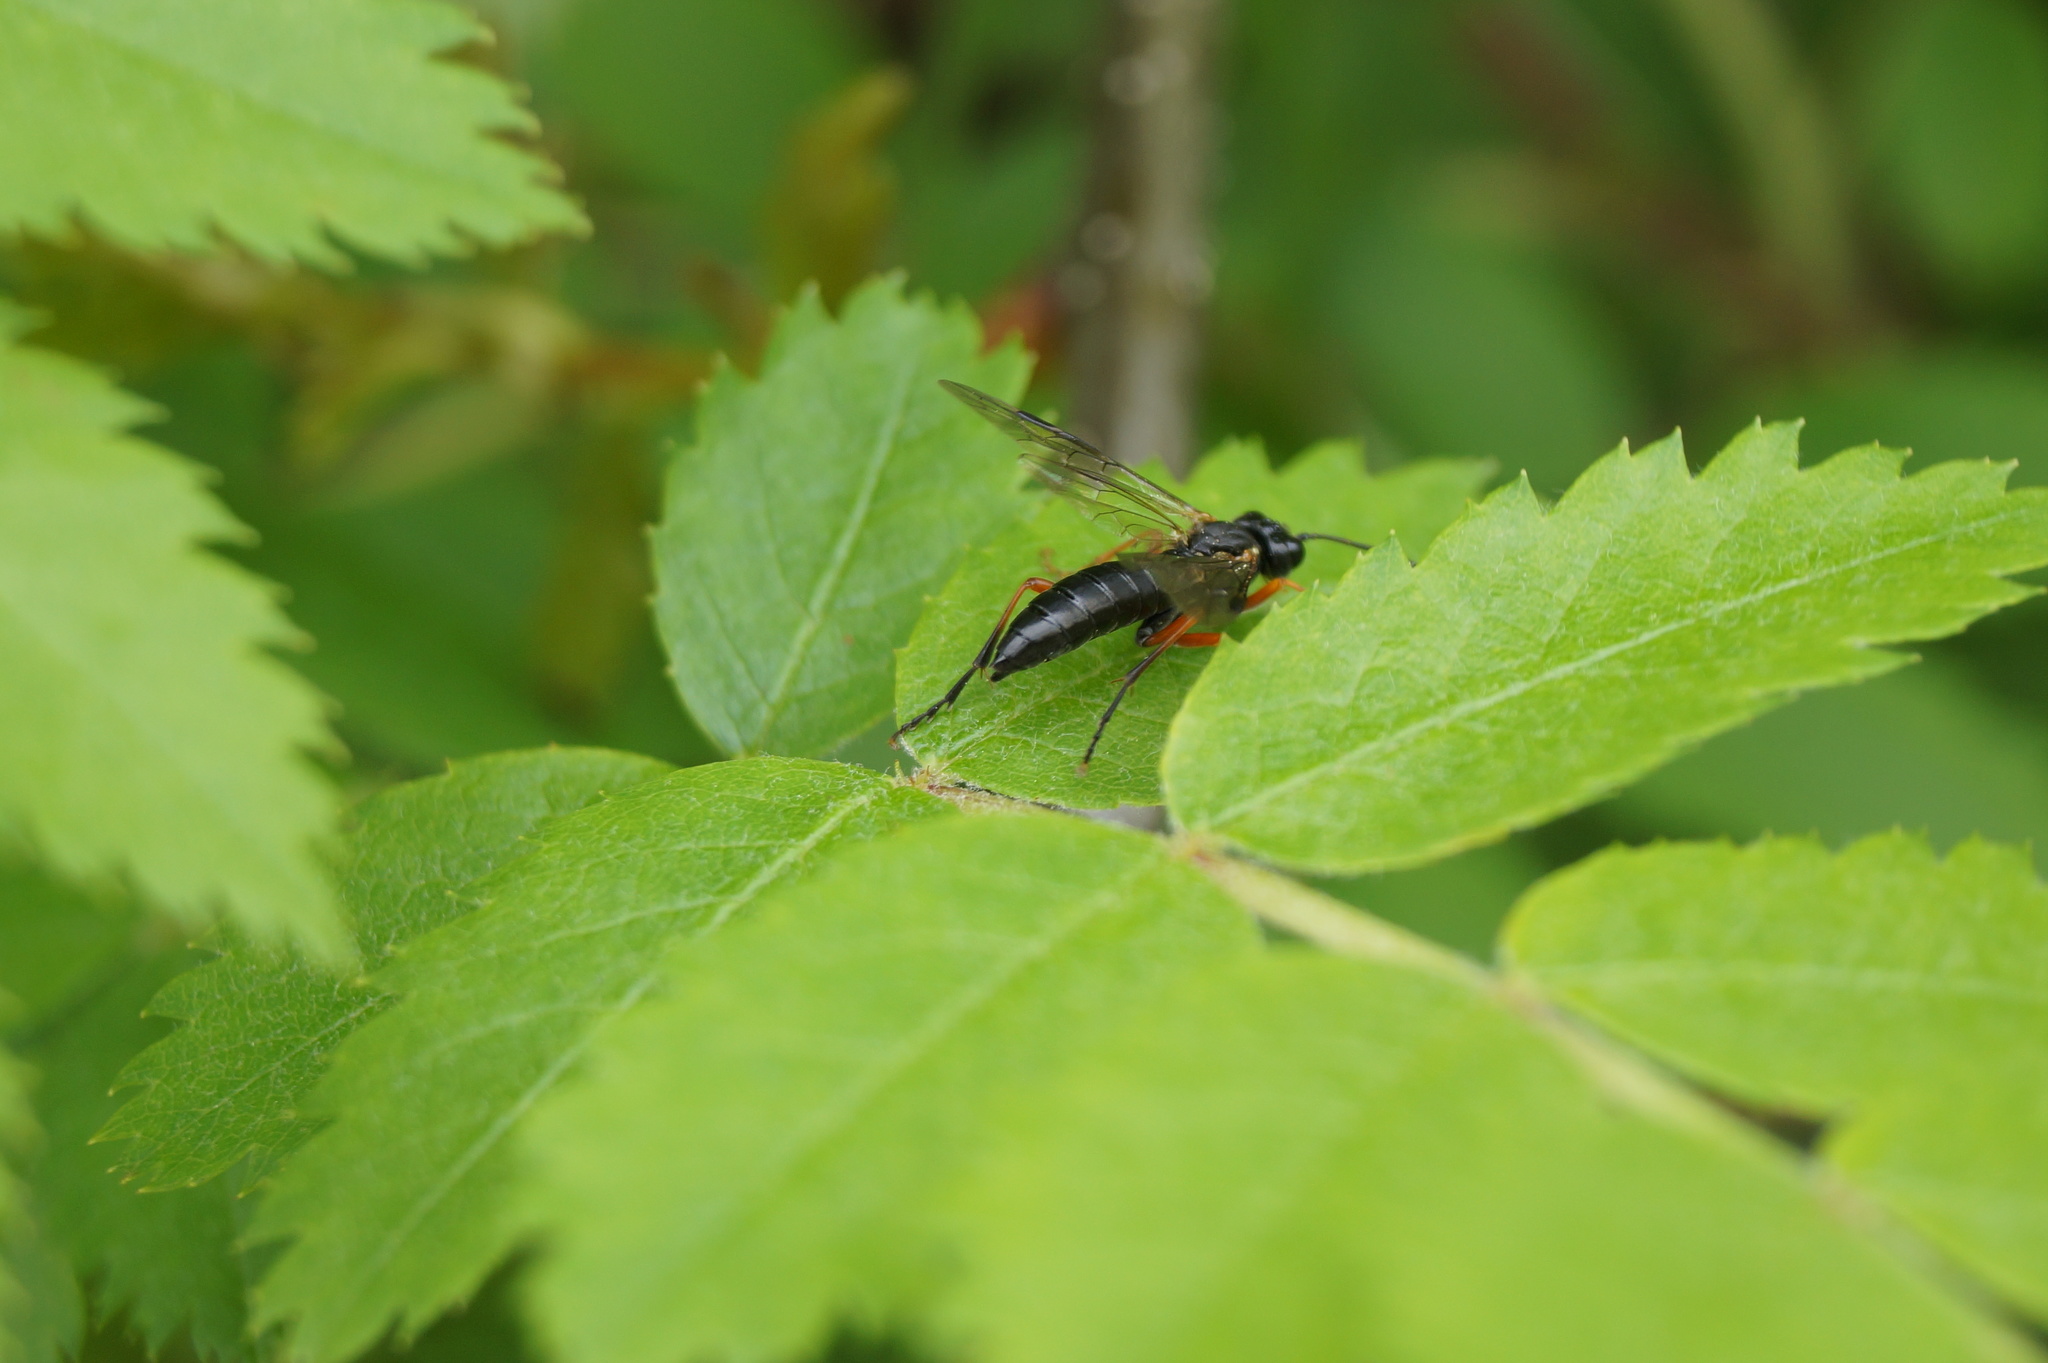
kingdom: Animalia
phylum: Arthropoda
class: Insecta
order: Hymenoptera
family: Tenthredinidae
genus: Tenthredo
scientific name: Tenthredo atra
